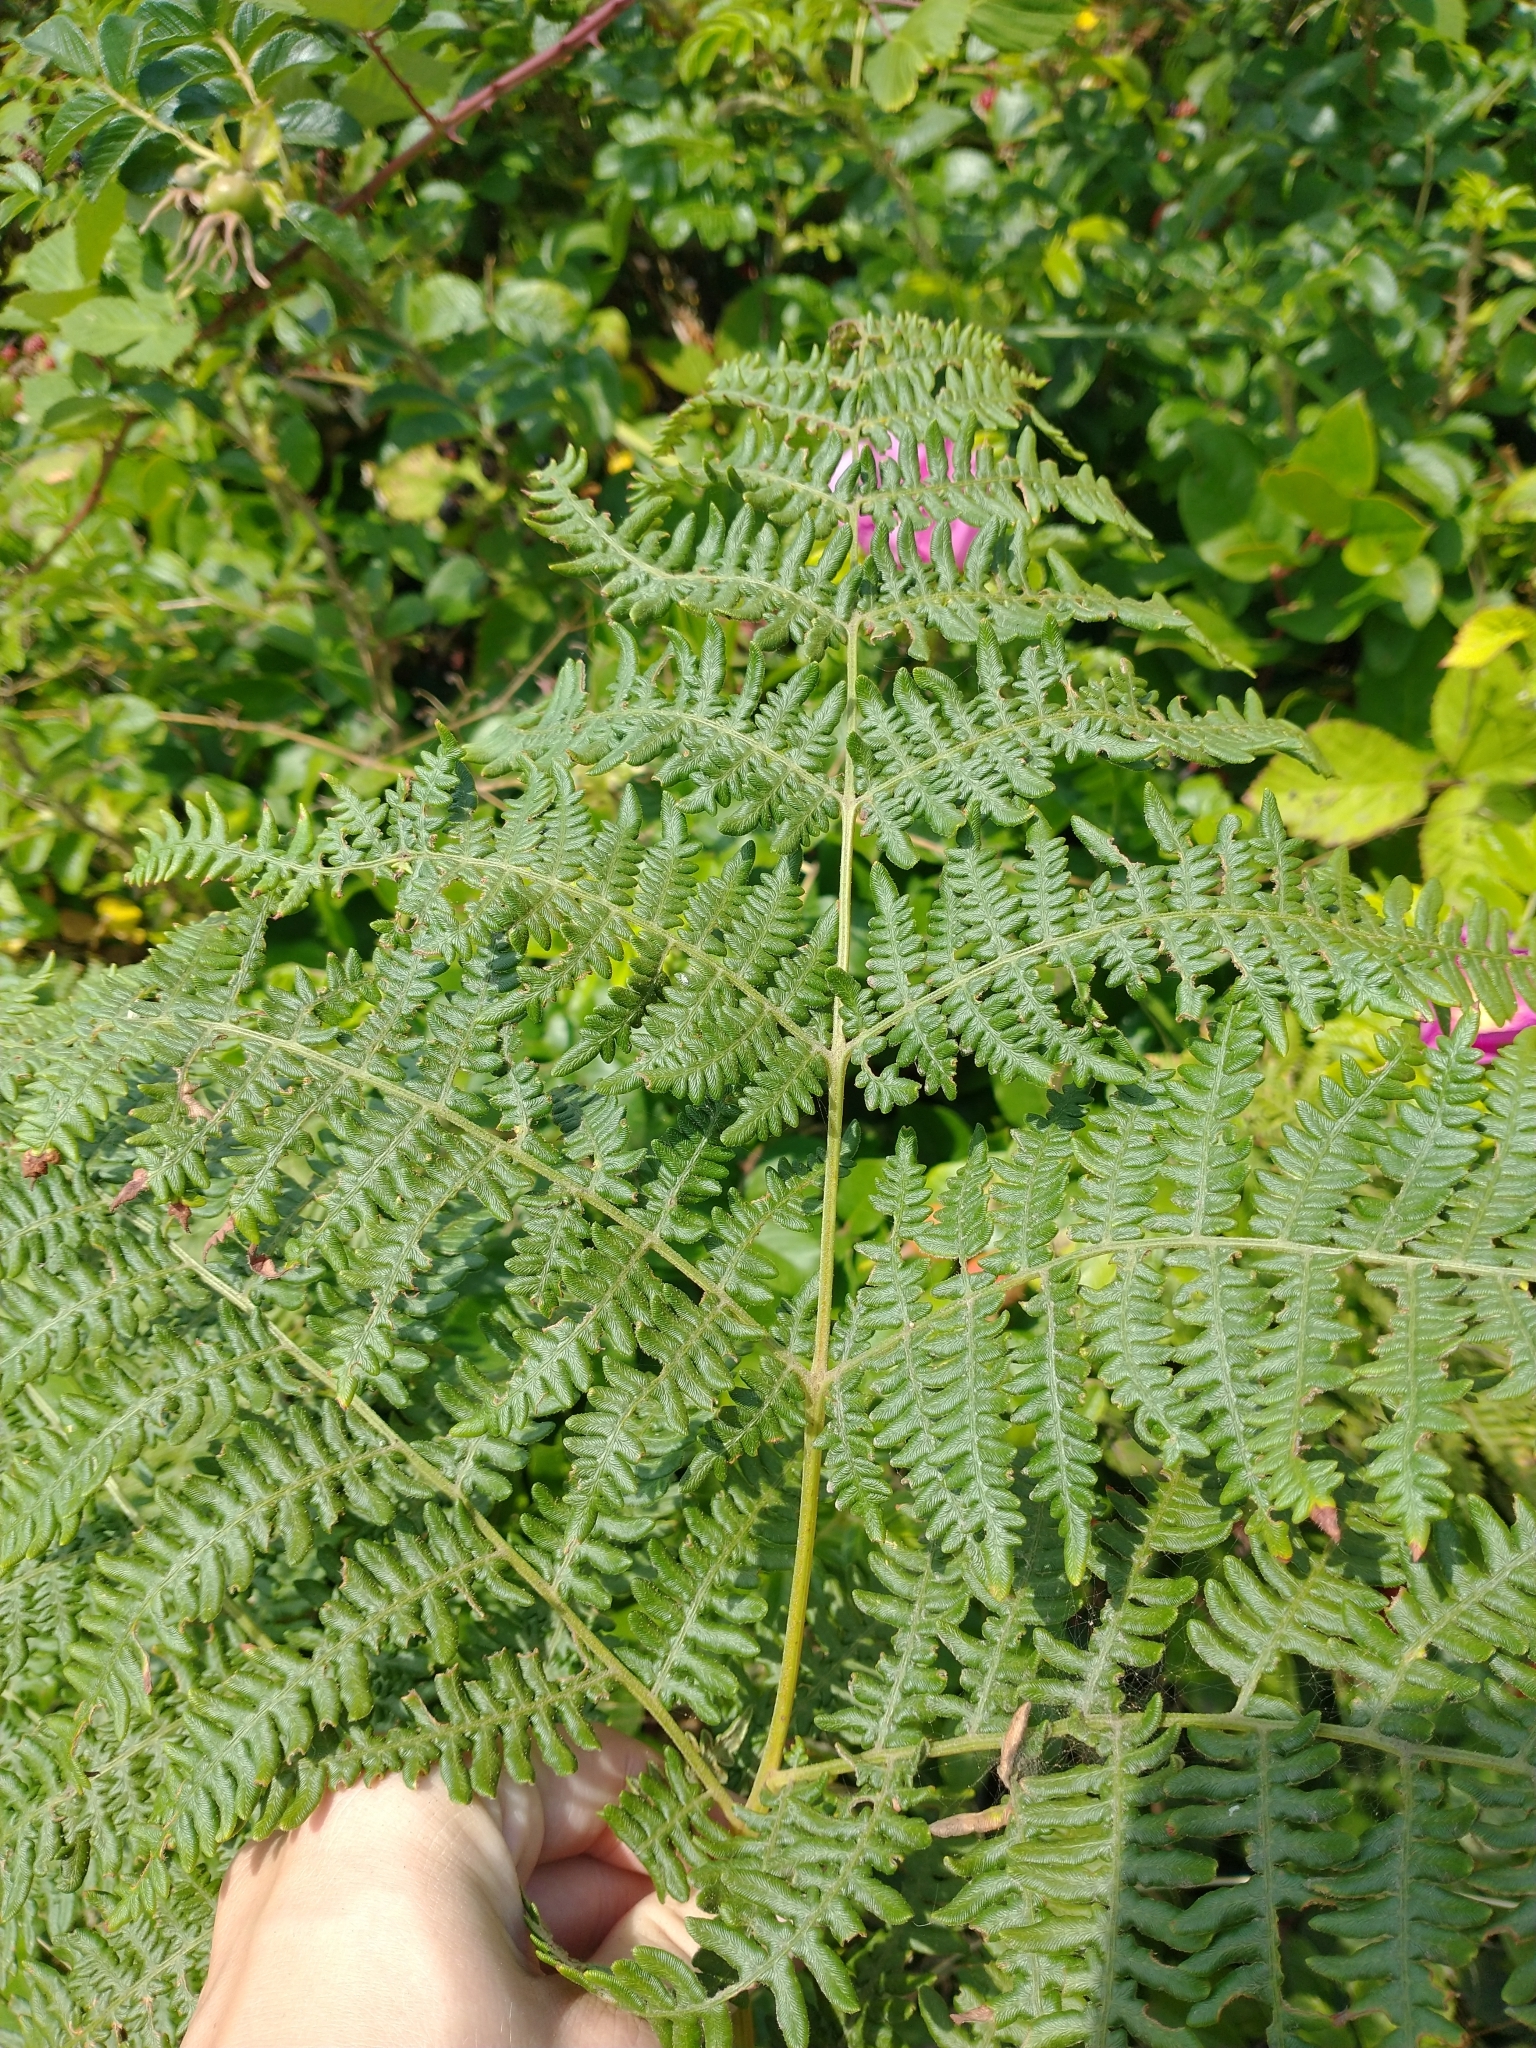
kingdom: Plantae
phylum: Tracheophyta
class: Polypodiopsida
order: Polypodiales
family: Dennstaedtiaceae
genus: Pteridium
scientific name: Pteridium aquilinum
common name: Bracken
